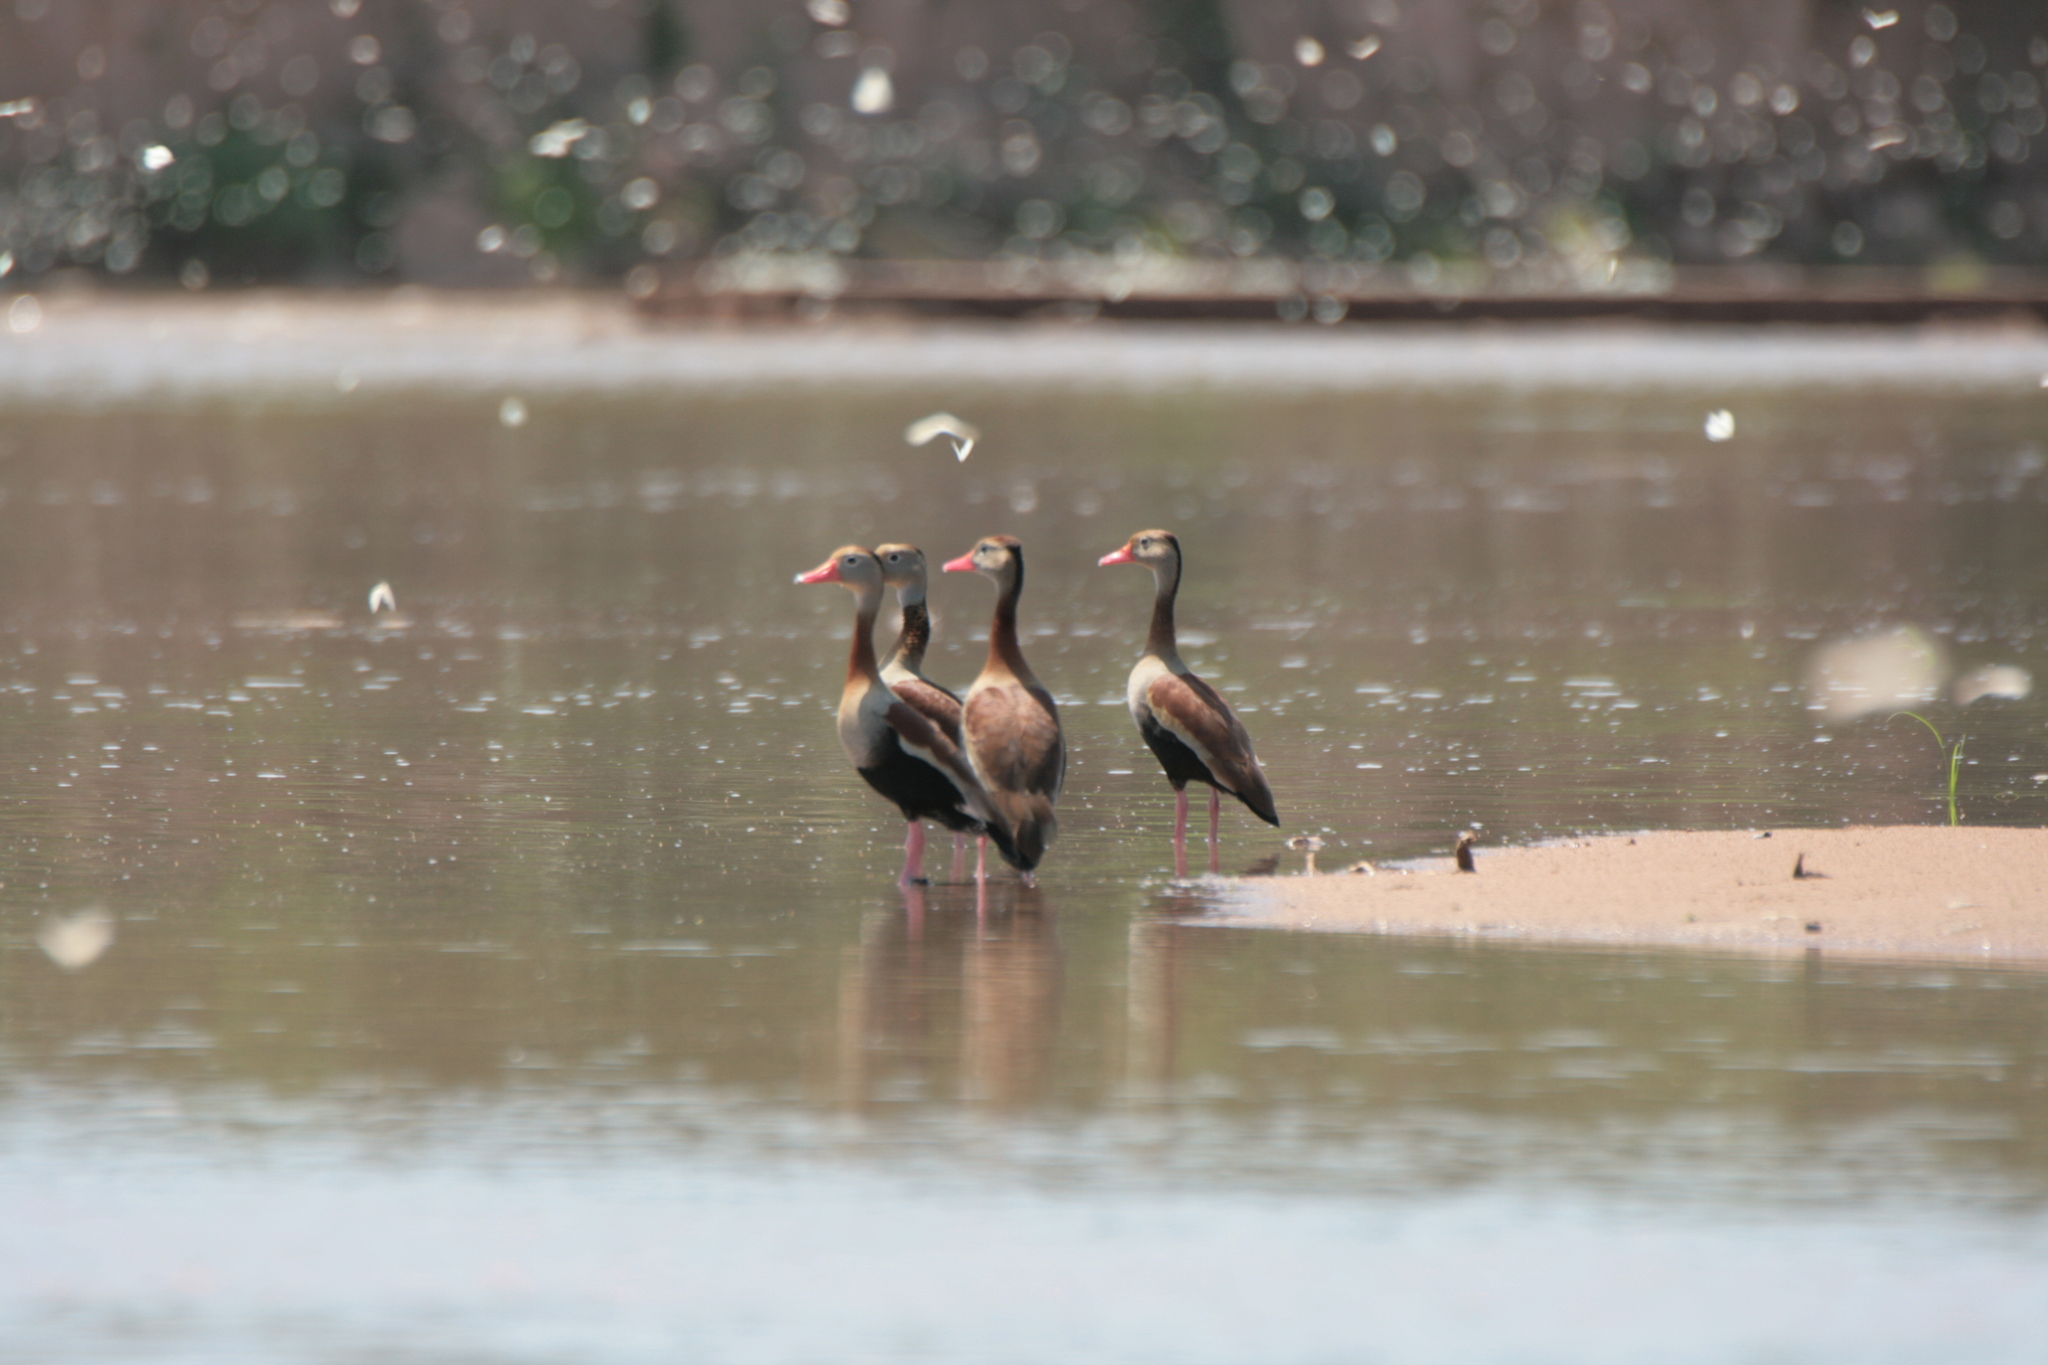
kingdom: Animalia
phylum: Chordata
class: Aves
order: Anseriformes
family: Anatidae
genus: Dendrocygna
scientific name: Dendrocygna autumnalis
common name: Black-bellied whistling duck
